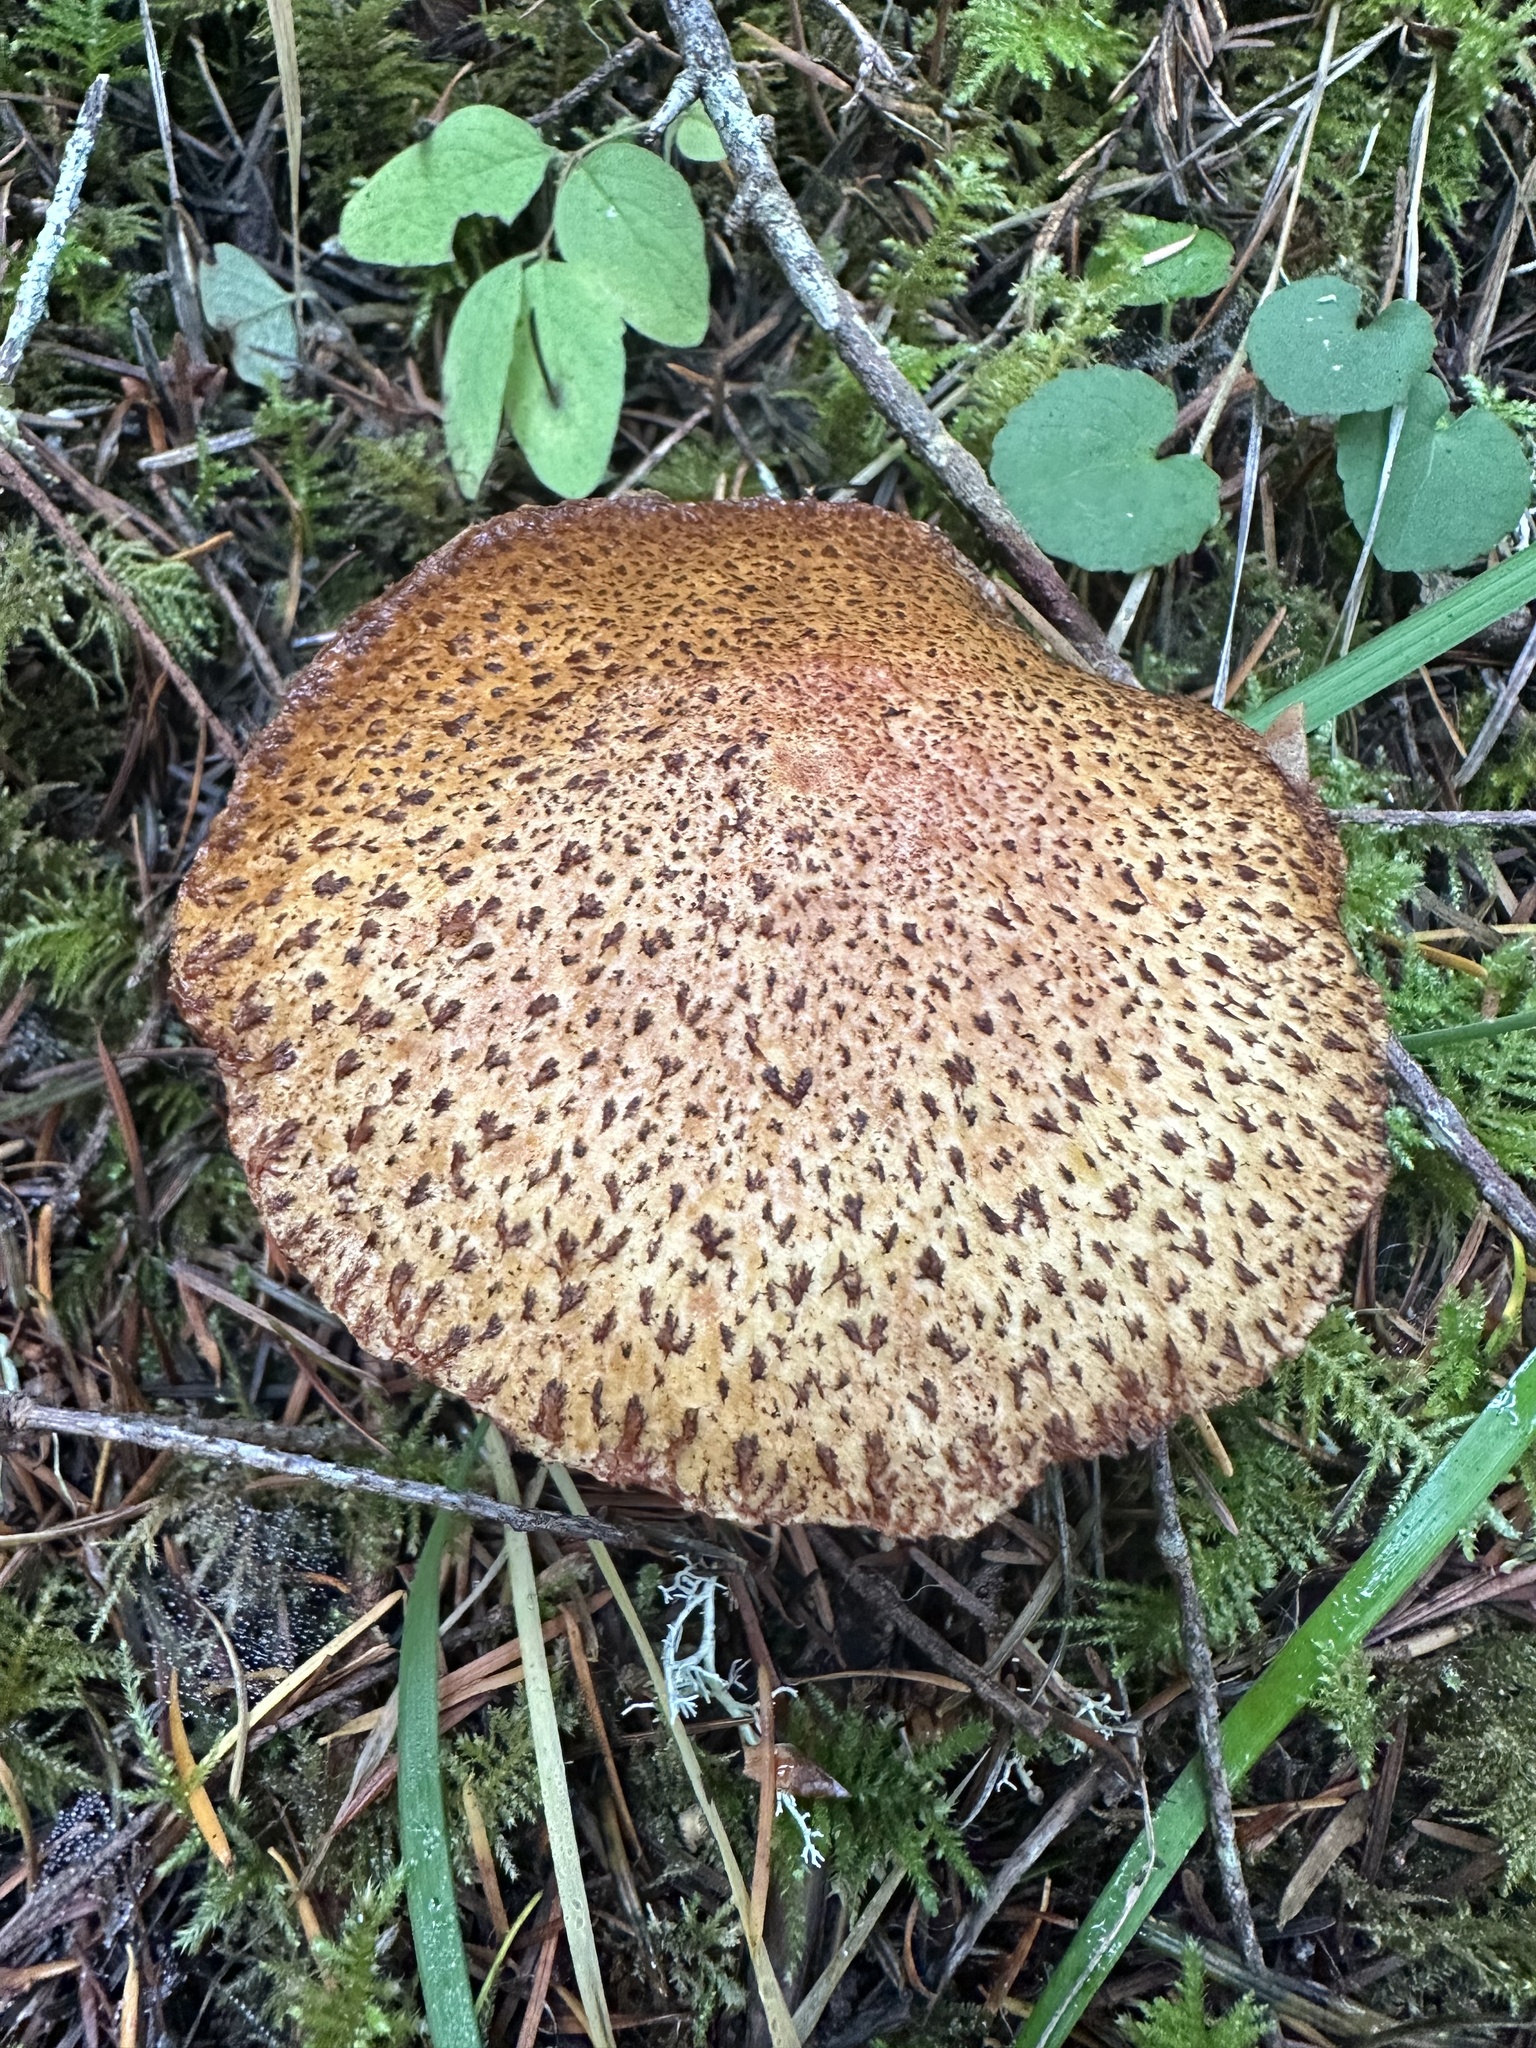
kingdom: Fungi
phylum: Basidiomycota
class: Agaricomycetes
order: Boletales
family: Suillaceae
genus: Suillus
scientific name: Suillus lakei
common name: Western painted suillus
